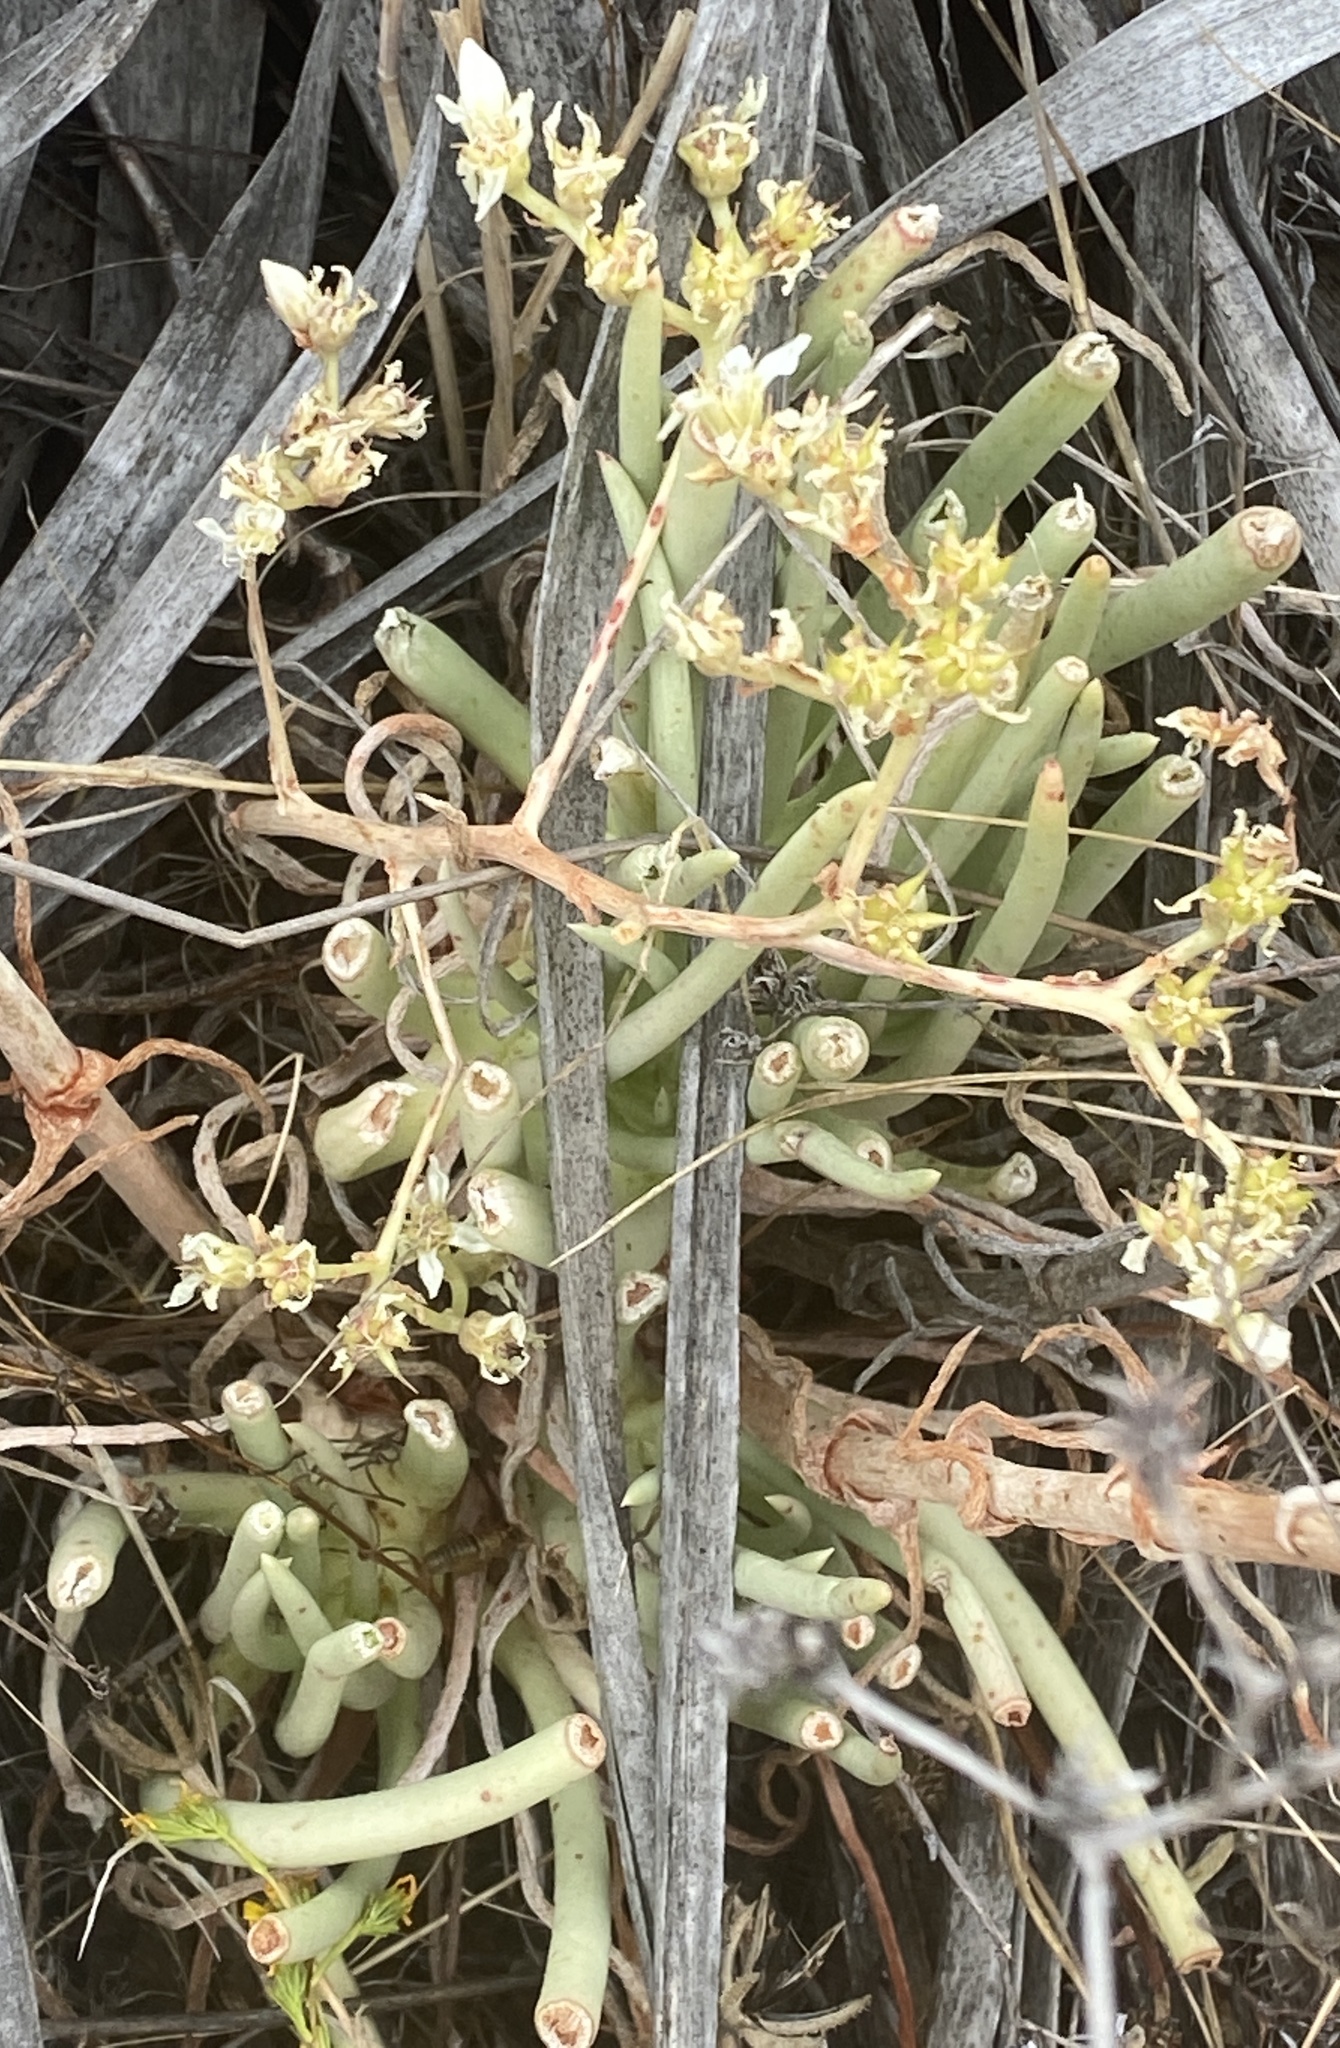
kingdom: Plantae
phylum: Tracheophyta
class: Magnoliopsida
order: Saxifragales
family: Crassulaceae
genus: Dudleya
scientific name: Dudleya edulis
